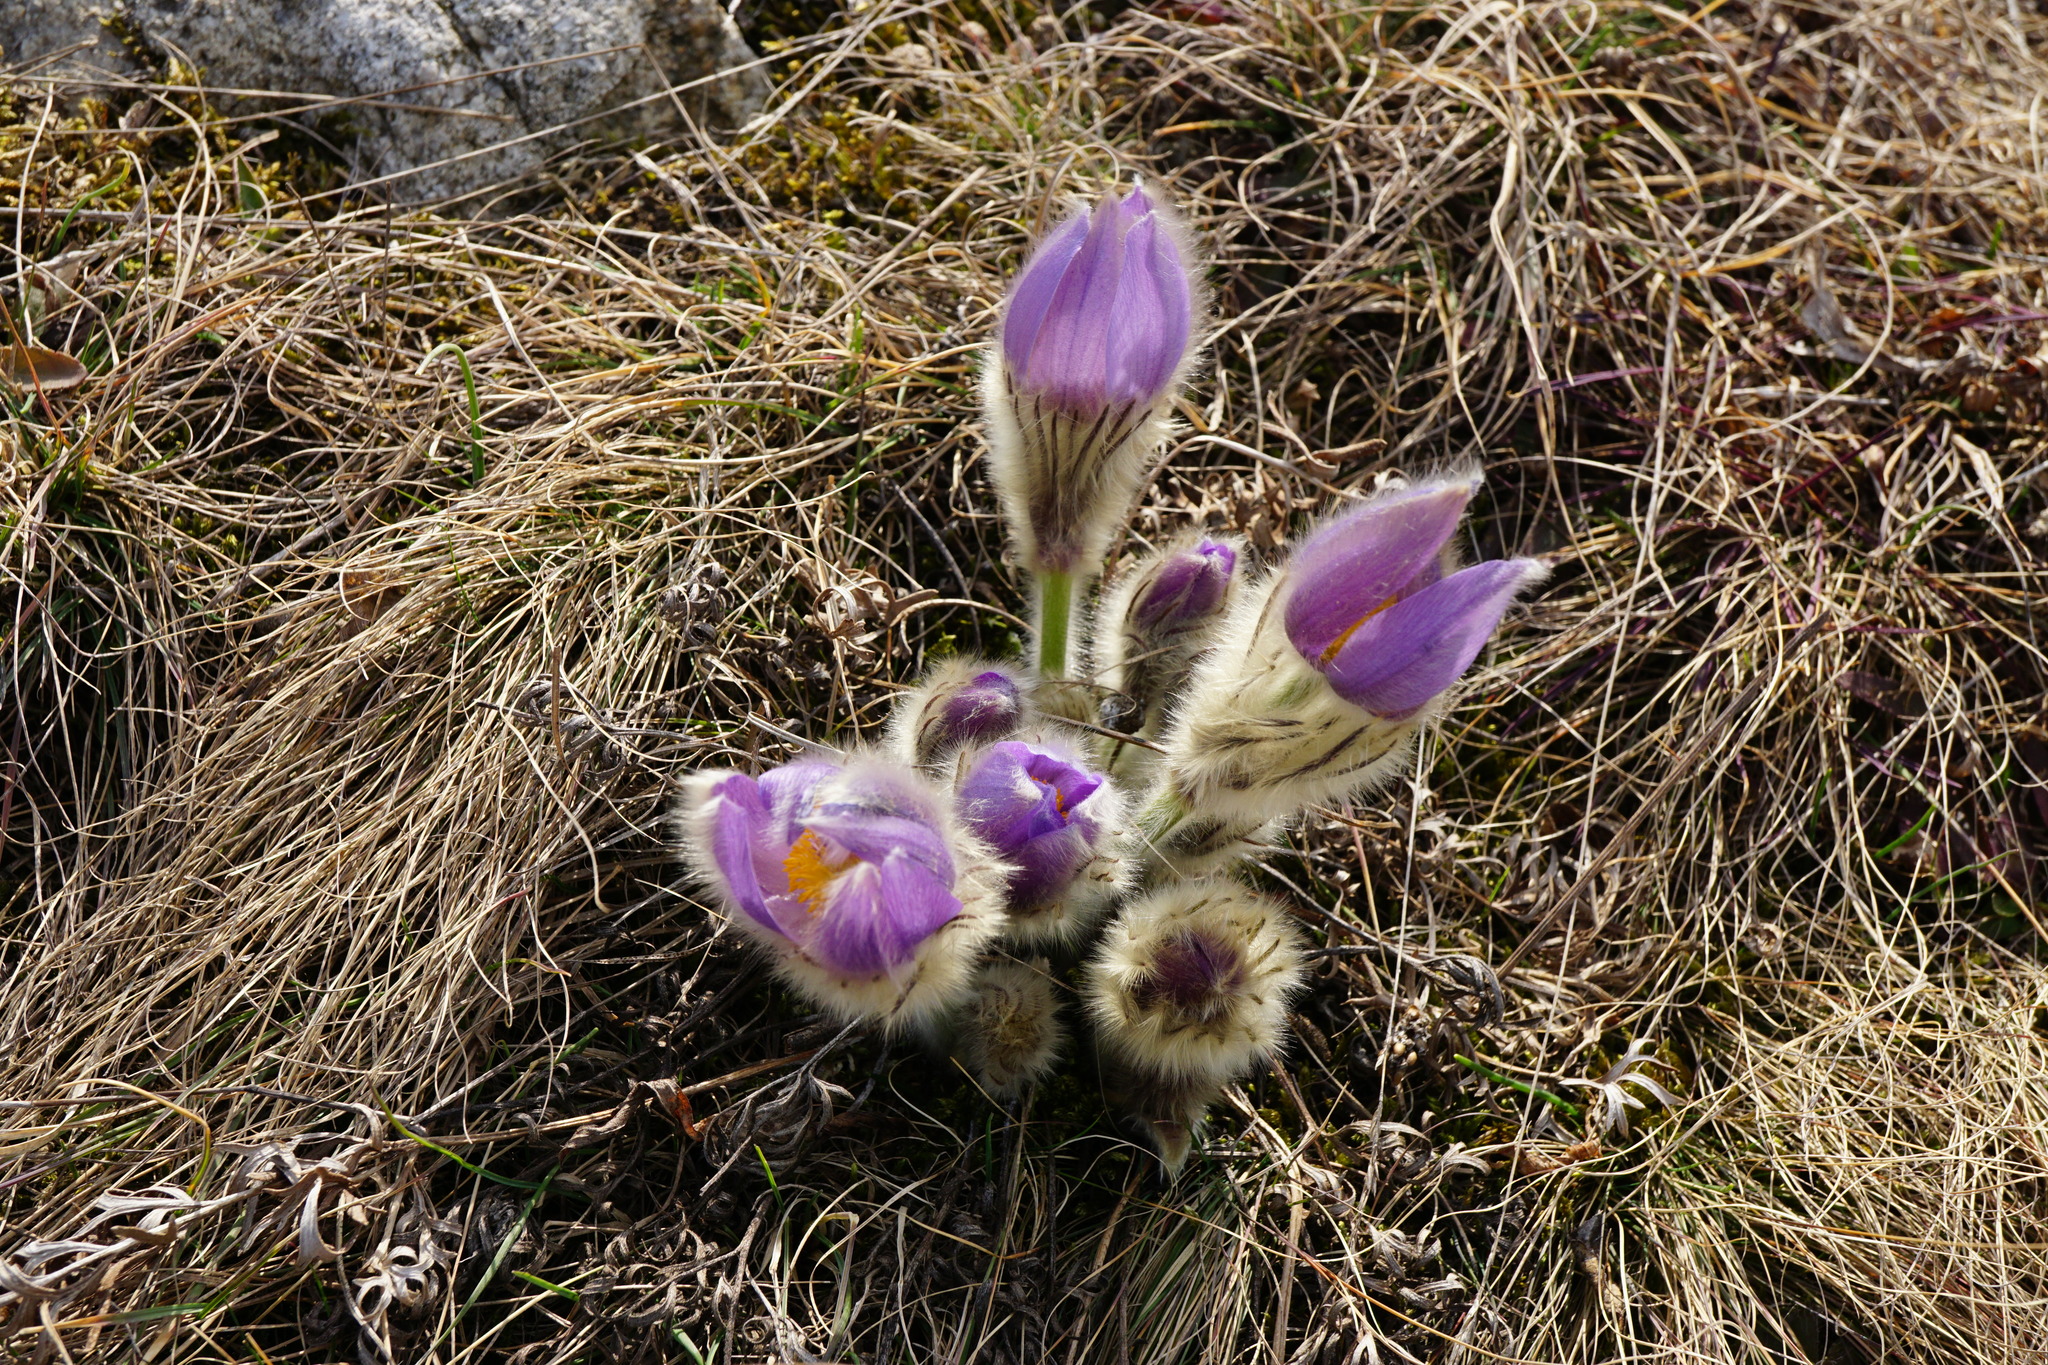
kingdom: Plantae
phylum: Tracheophyta
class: Magnoliopsida
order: Ranunculales
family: Ranunculaceae
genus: Pulsatilla
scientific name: Pulsatilla grandis
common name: Greater pasque flower
